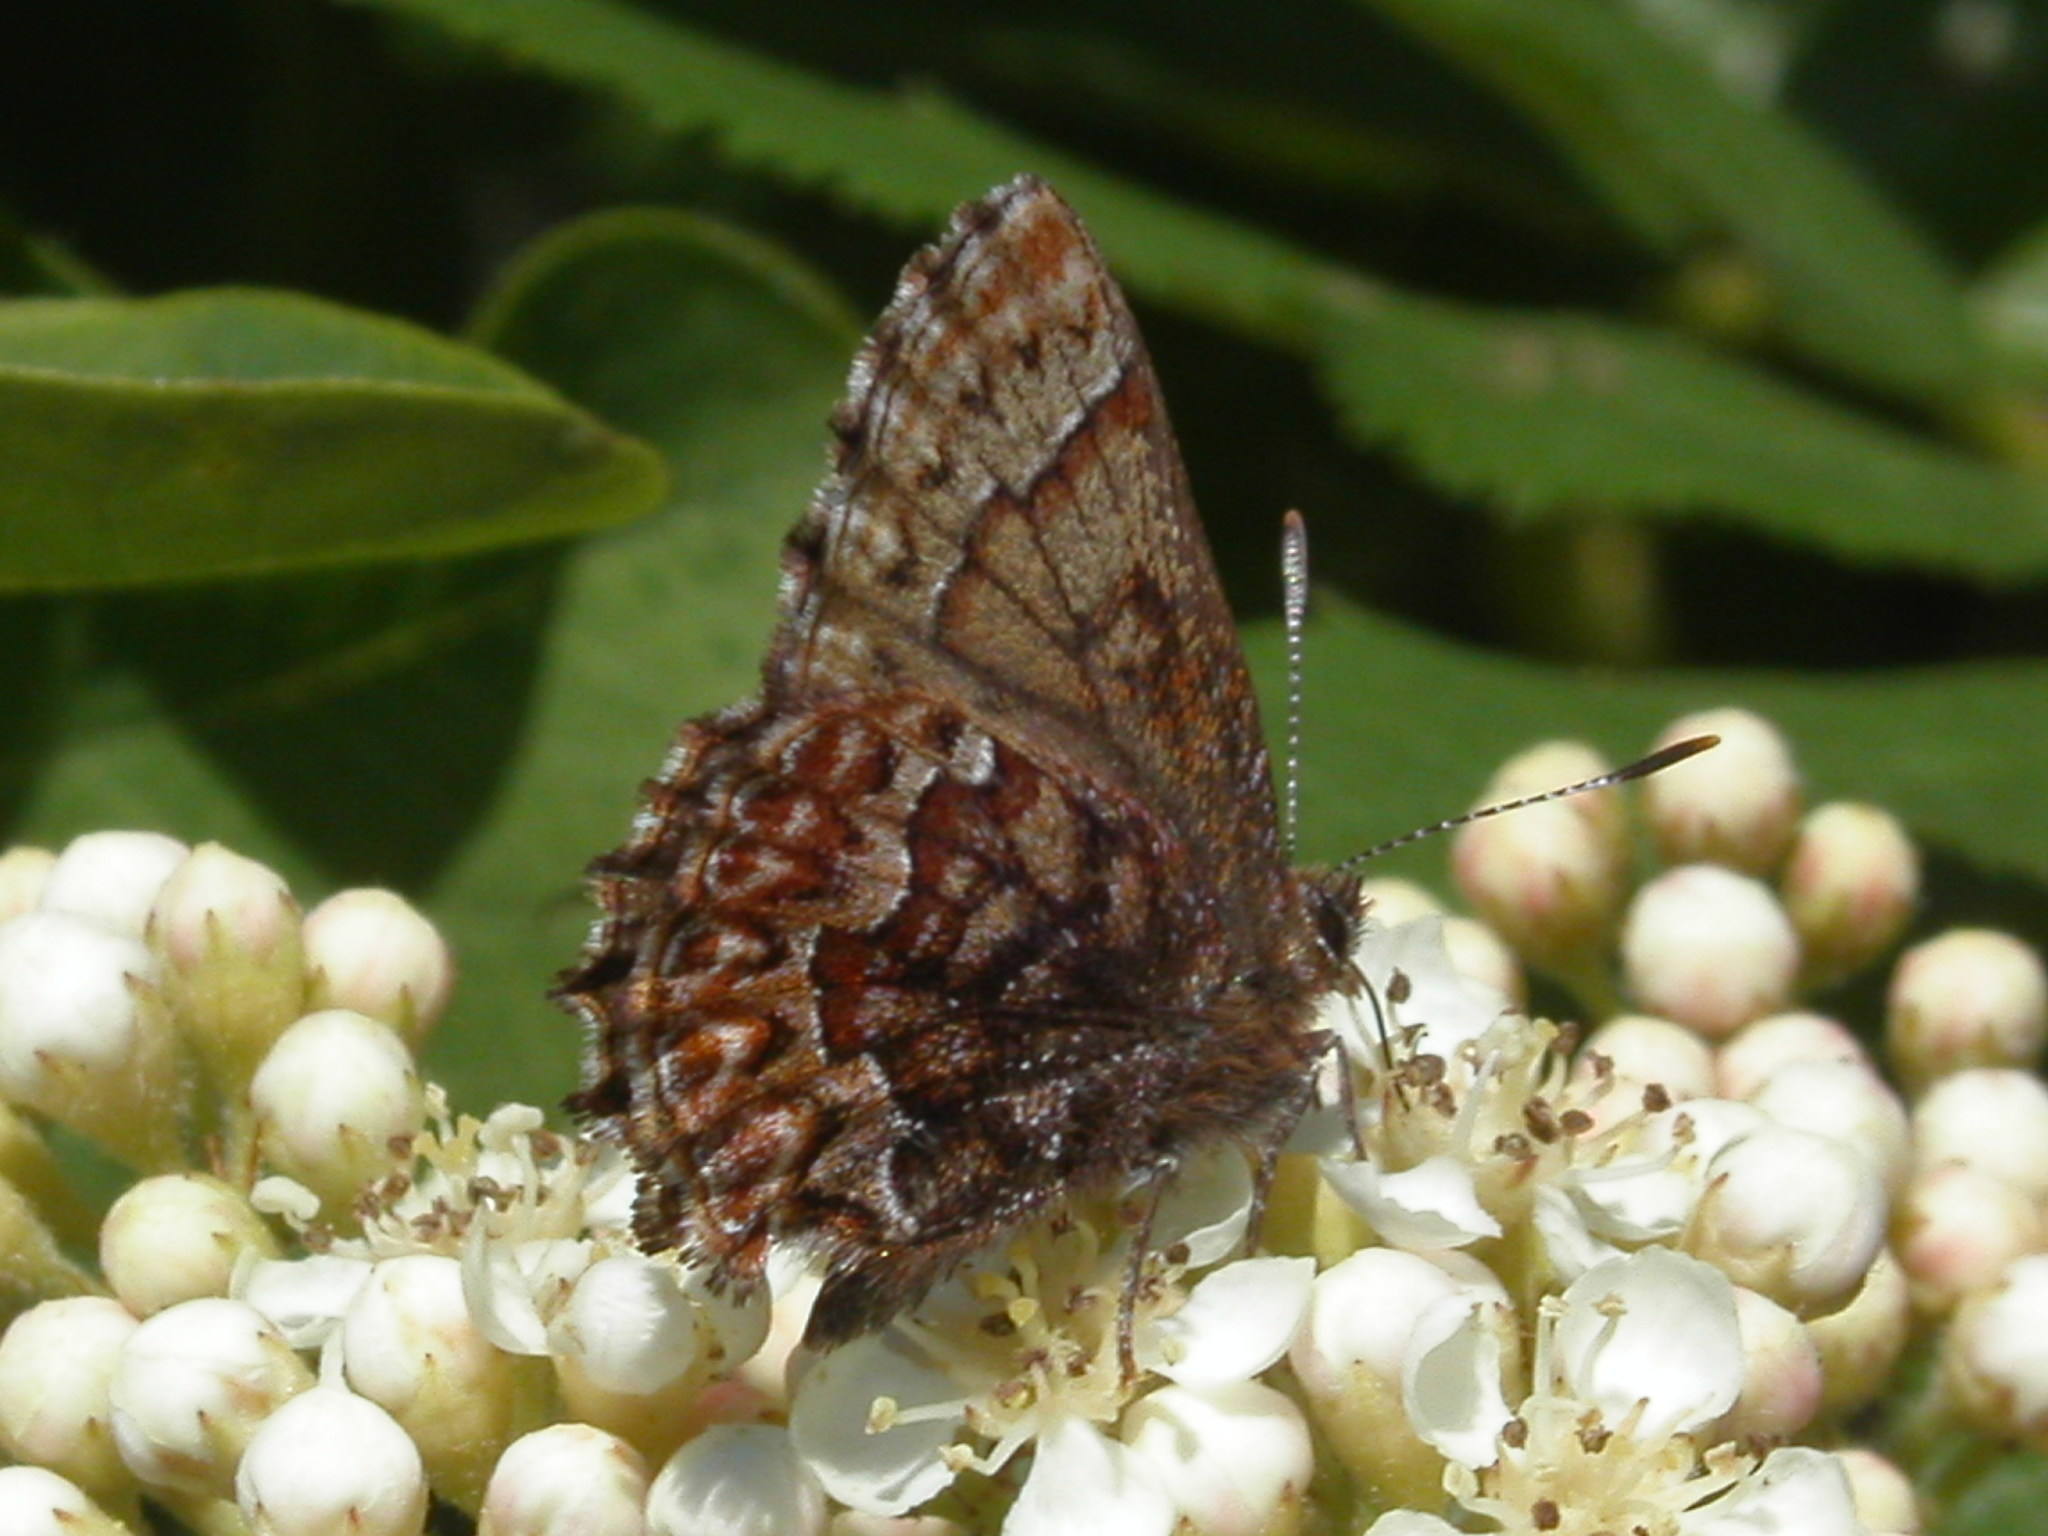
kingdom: Animalia
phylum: Arthropoda
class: Insecta
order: Lepidoptera
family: Lycaenidae
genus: Incisalia
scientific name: Incisalia eryphon
